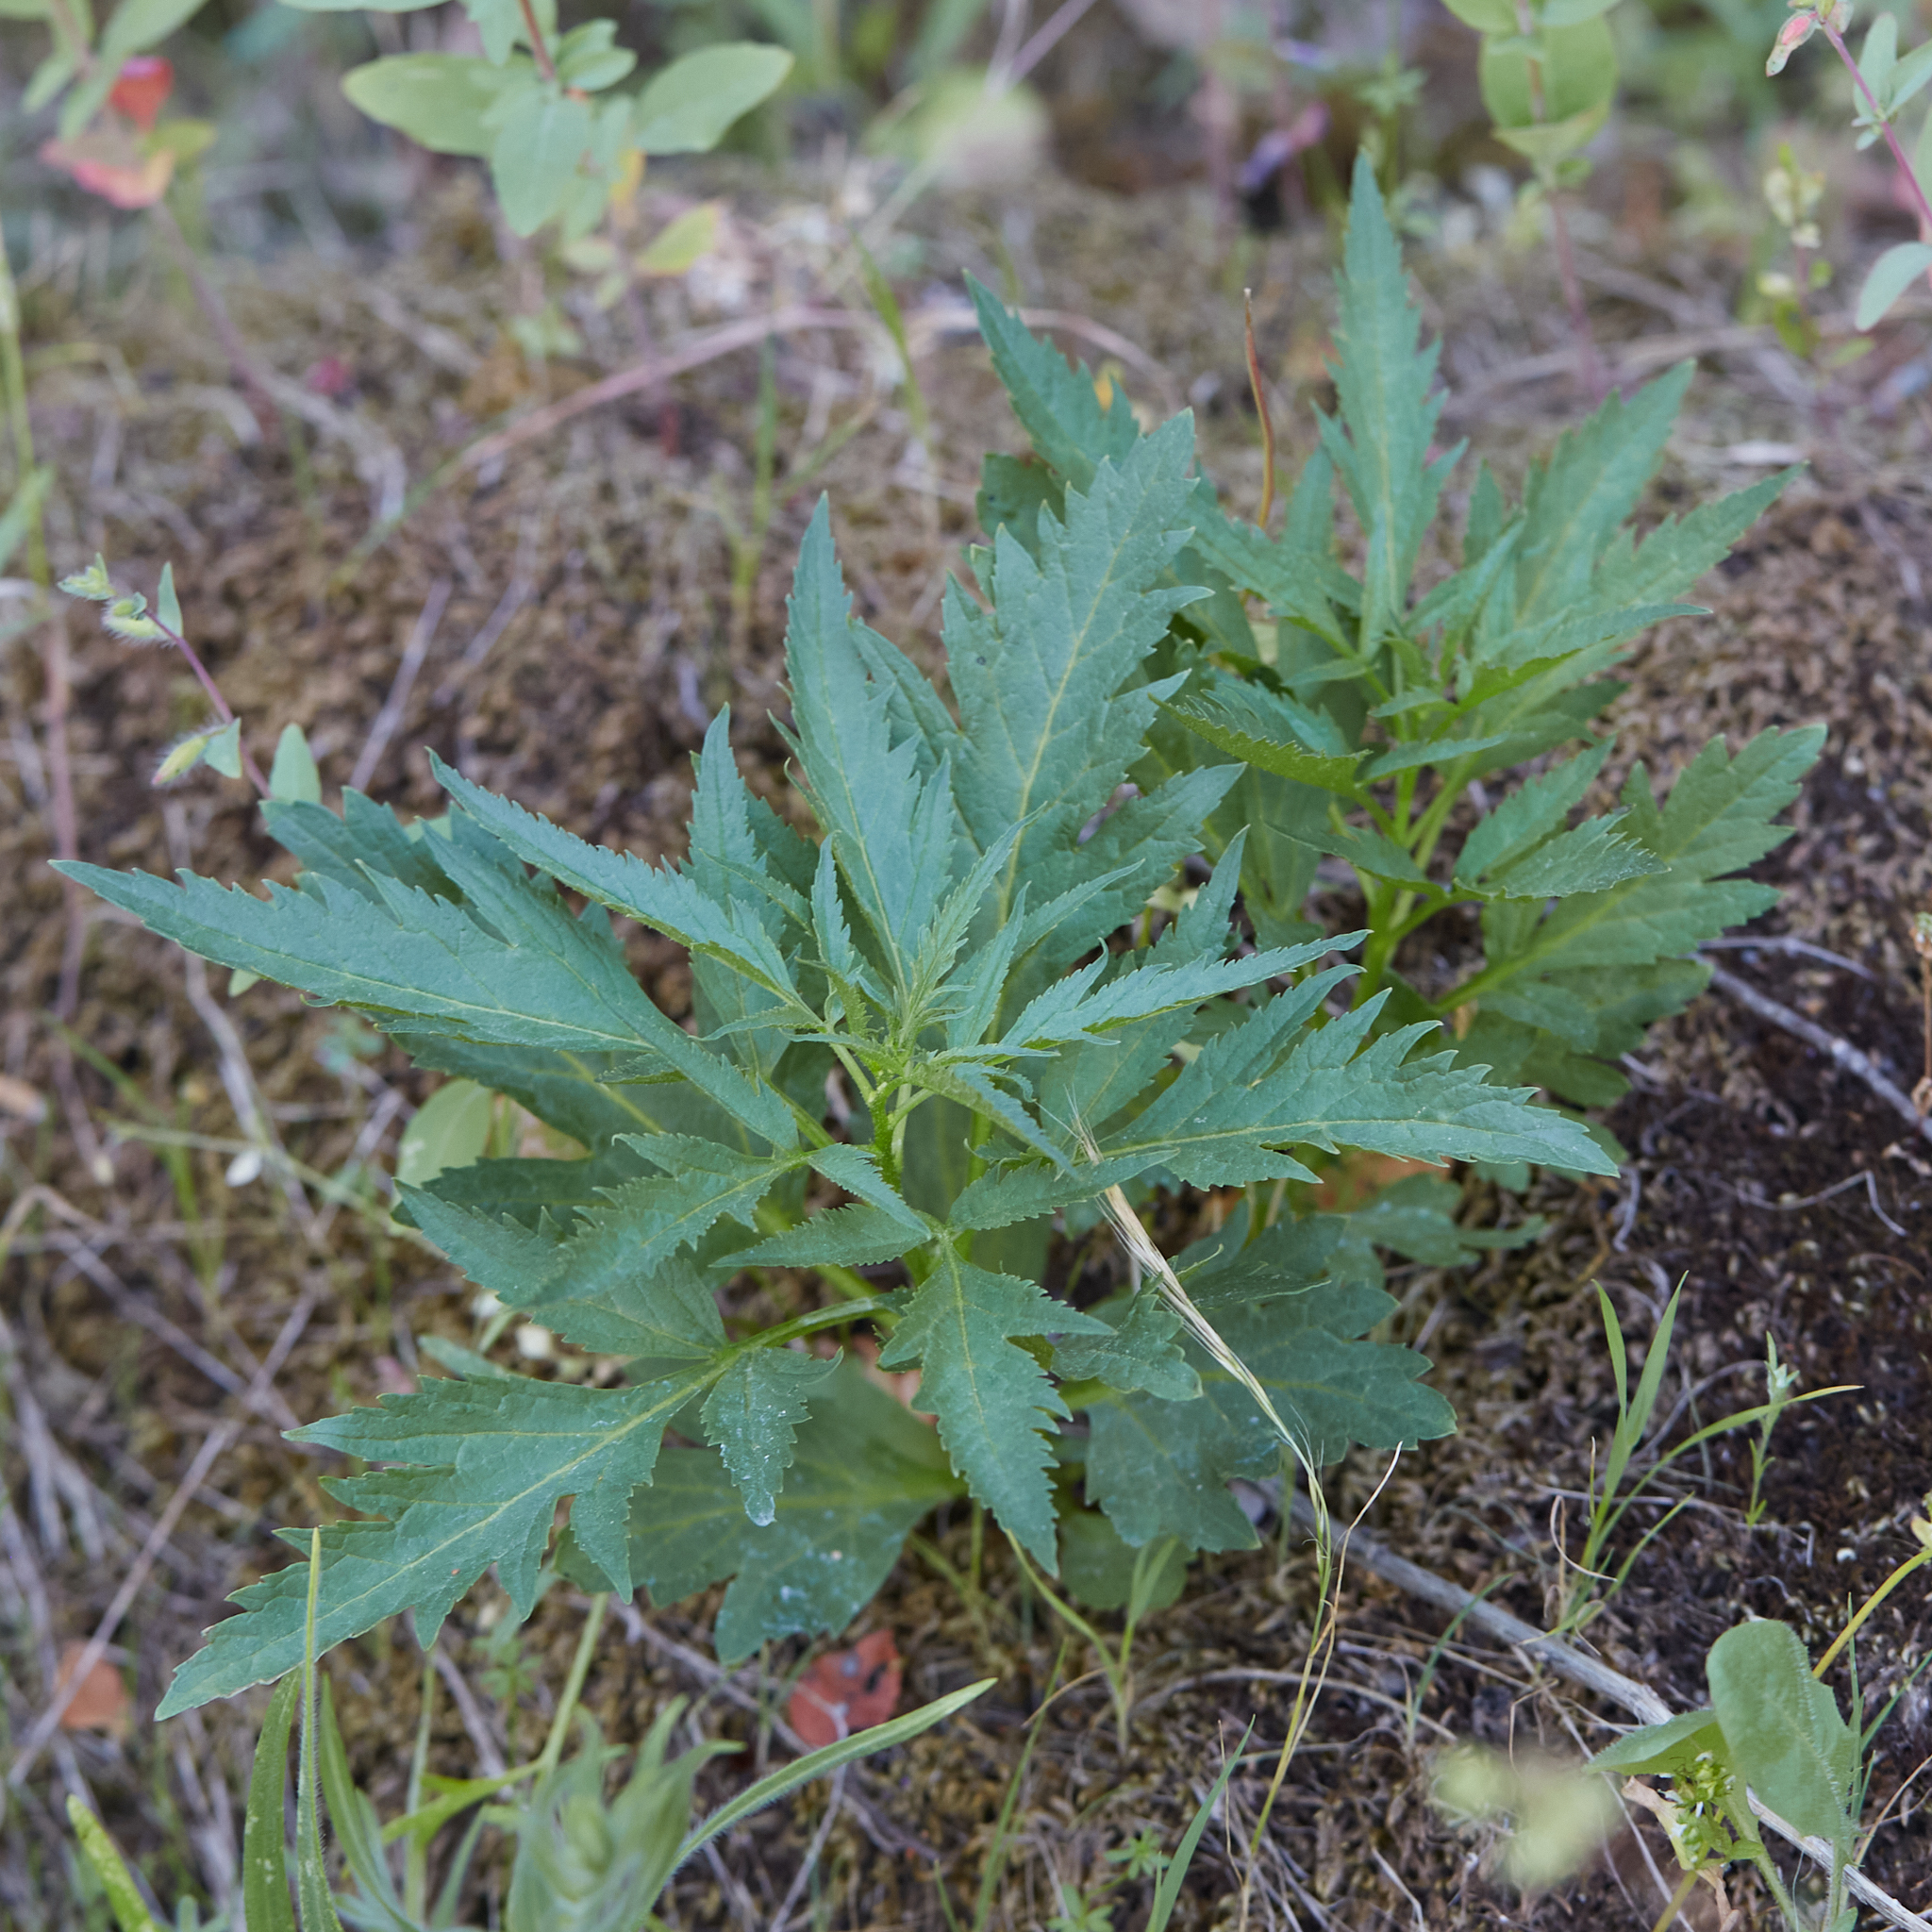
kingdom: Plantae
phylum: Tracheophyta
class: Magnoliopsida
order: Cucurbitales
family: Datiscaceae
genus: Datisca
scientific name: Datisca glomerata
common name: Durango-root
